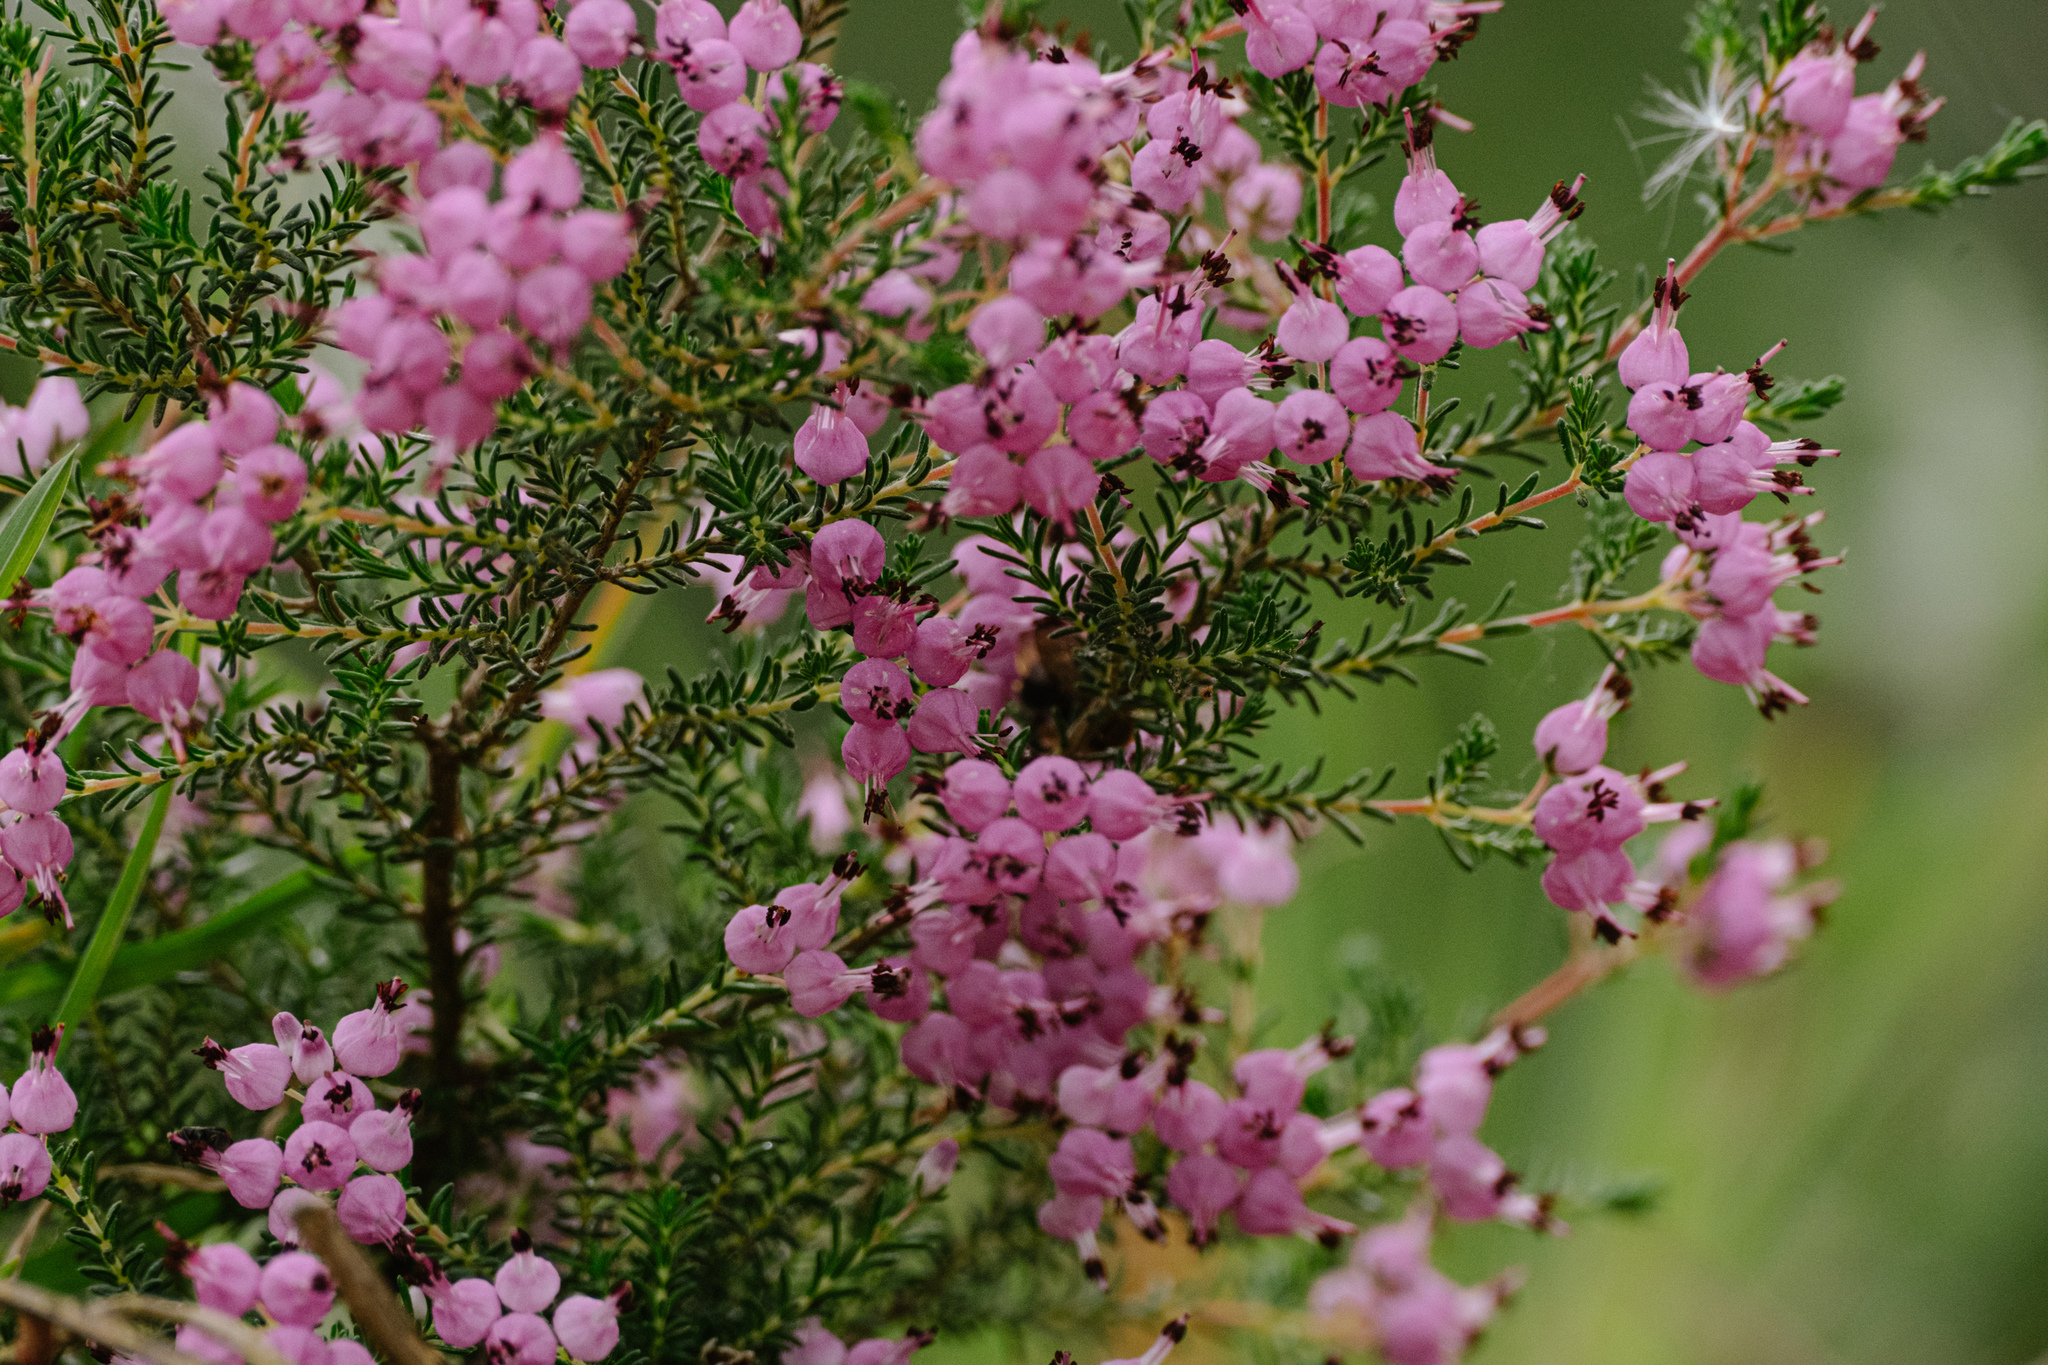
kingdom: Plantae
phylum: Tracheophyta
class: Magnoliopsida
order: Ericales
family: Ericaceae
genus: Erica
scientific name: Erica umbellata
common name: Dwarf spanish heath
